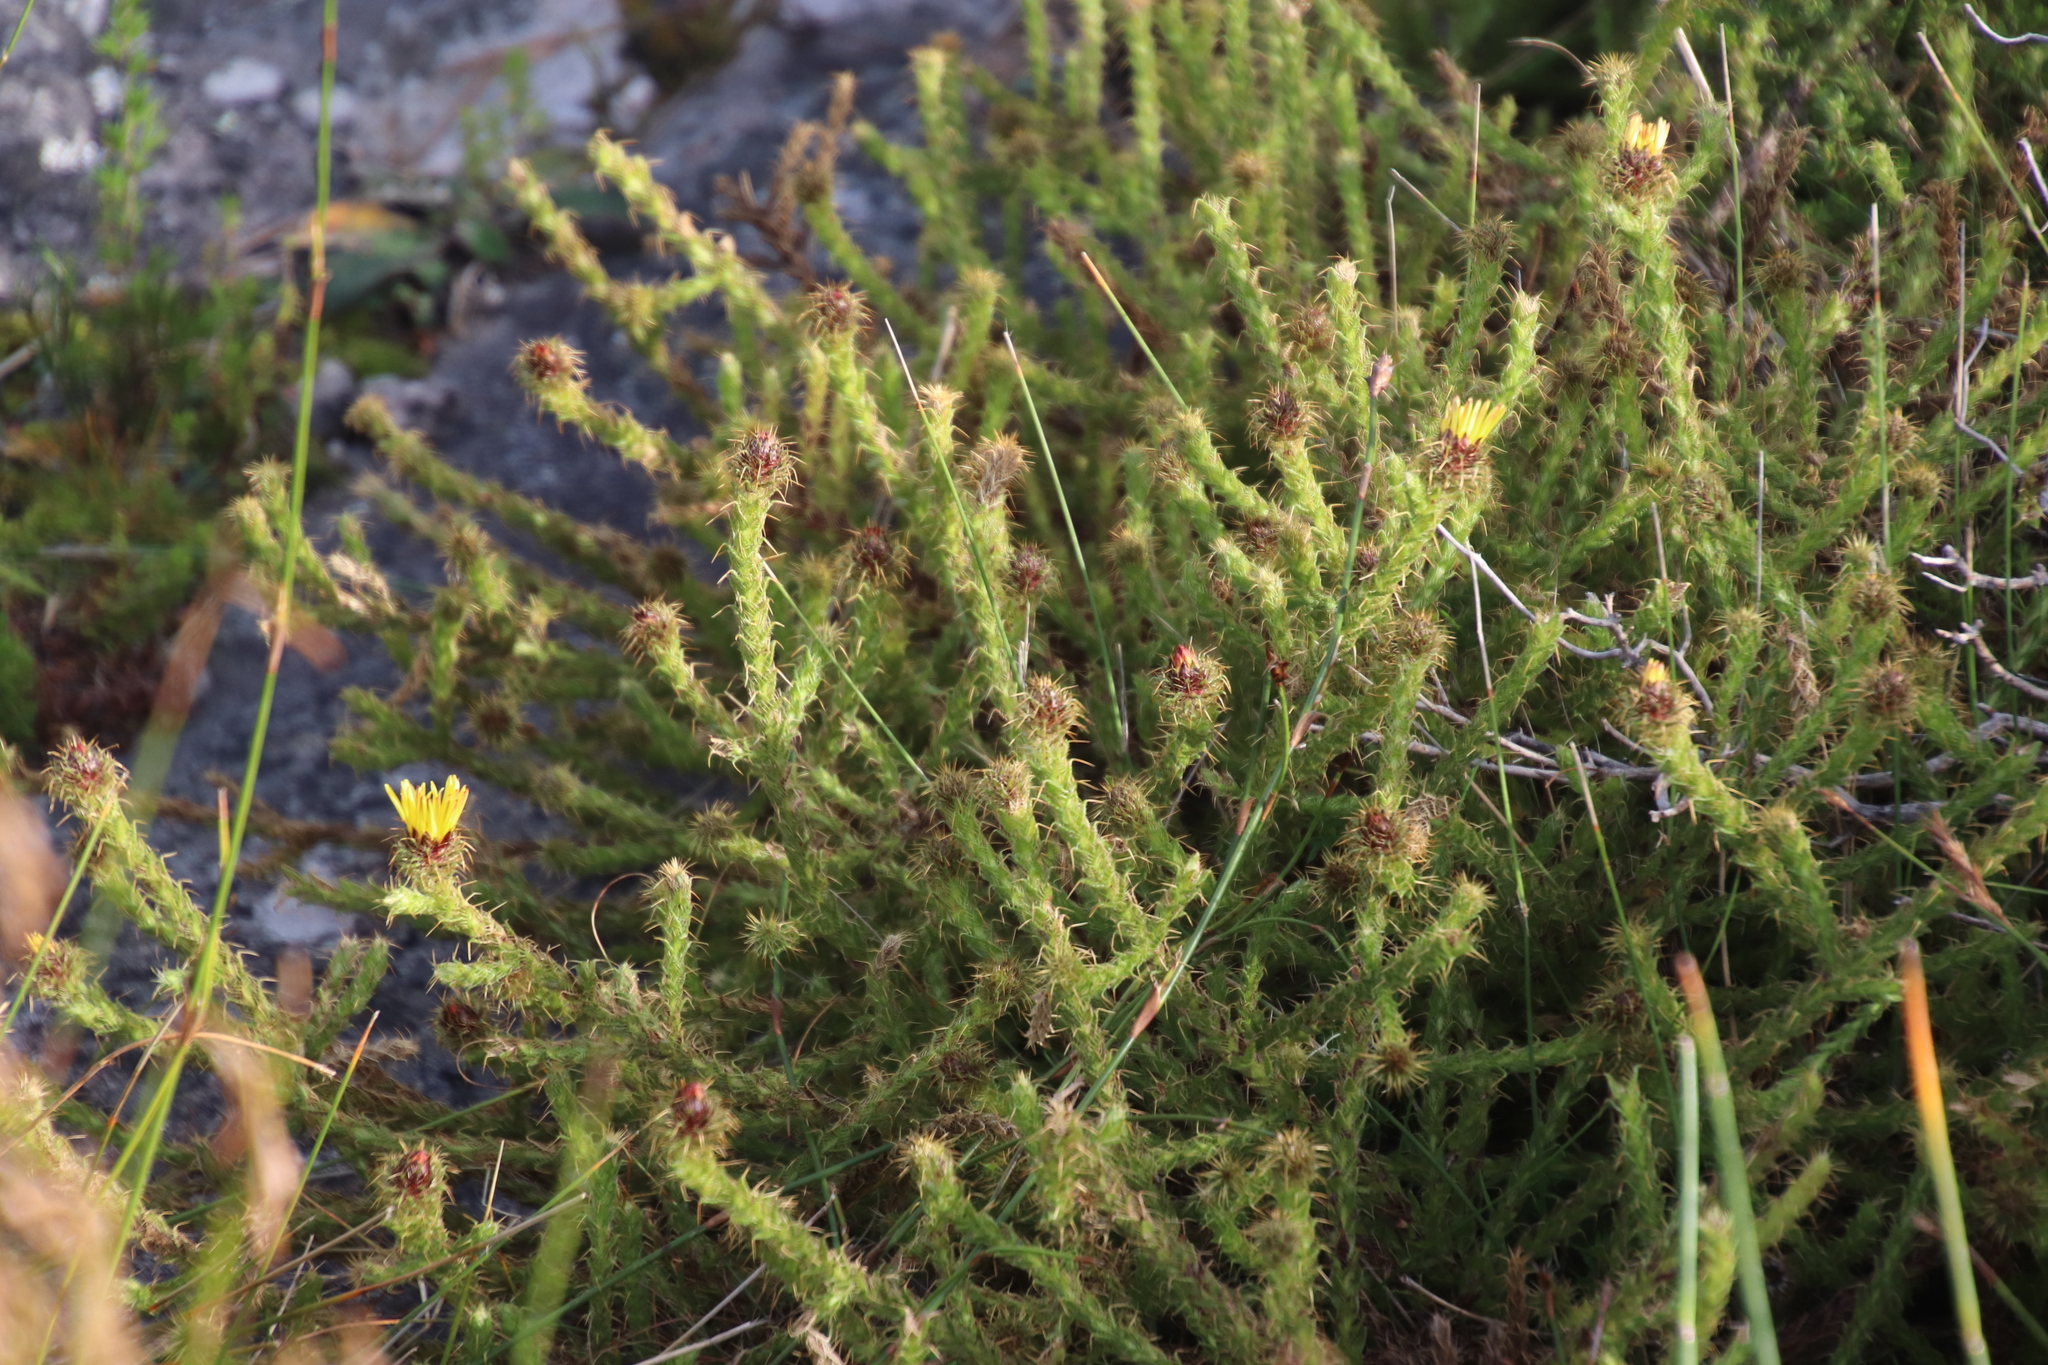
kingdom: Plantae
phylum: Tracheophyta
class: Magnoliopsida
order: Asterales
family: Asteraceae
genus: Cullumia
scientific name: Cullumia reticulata
